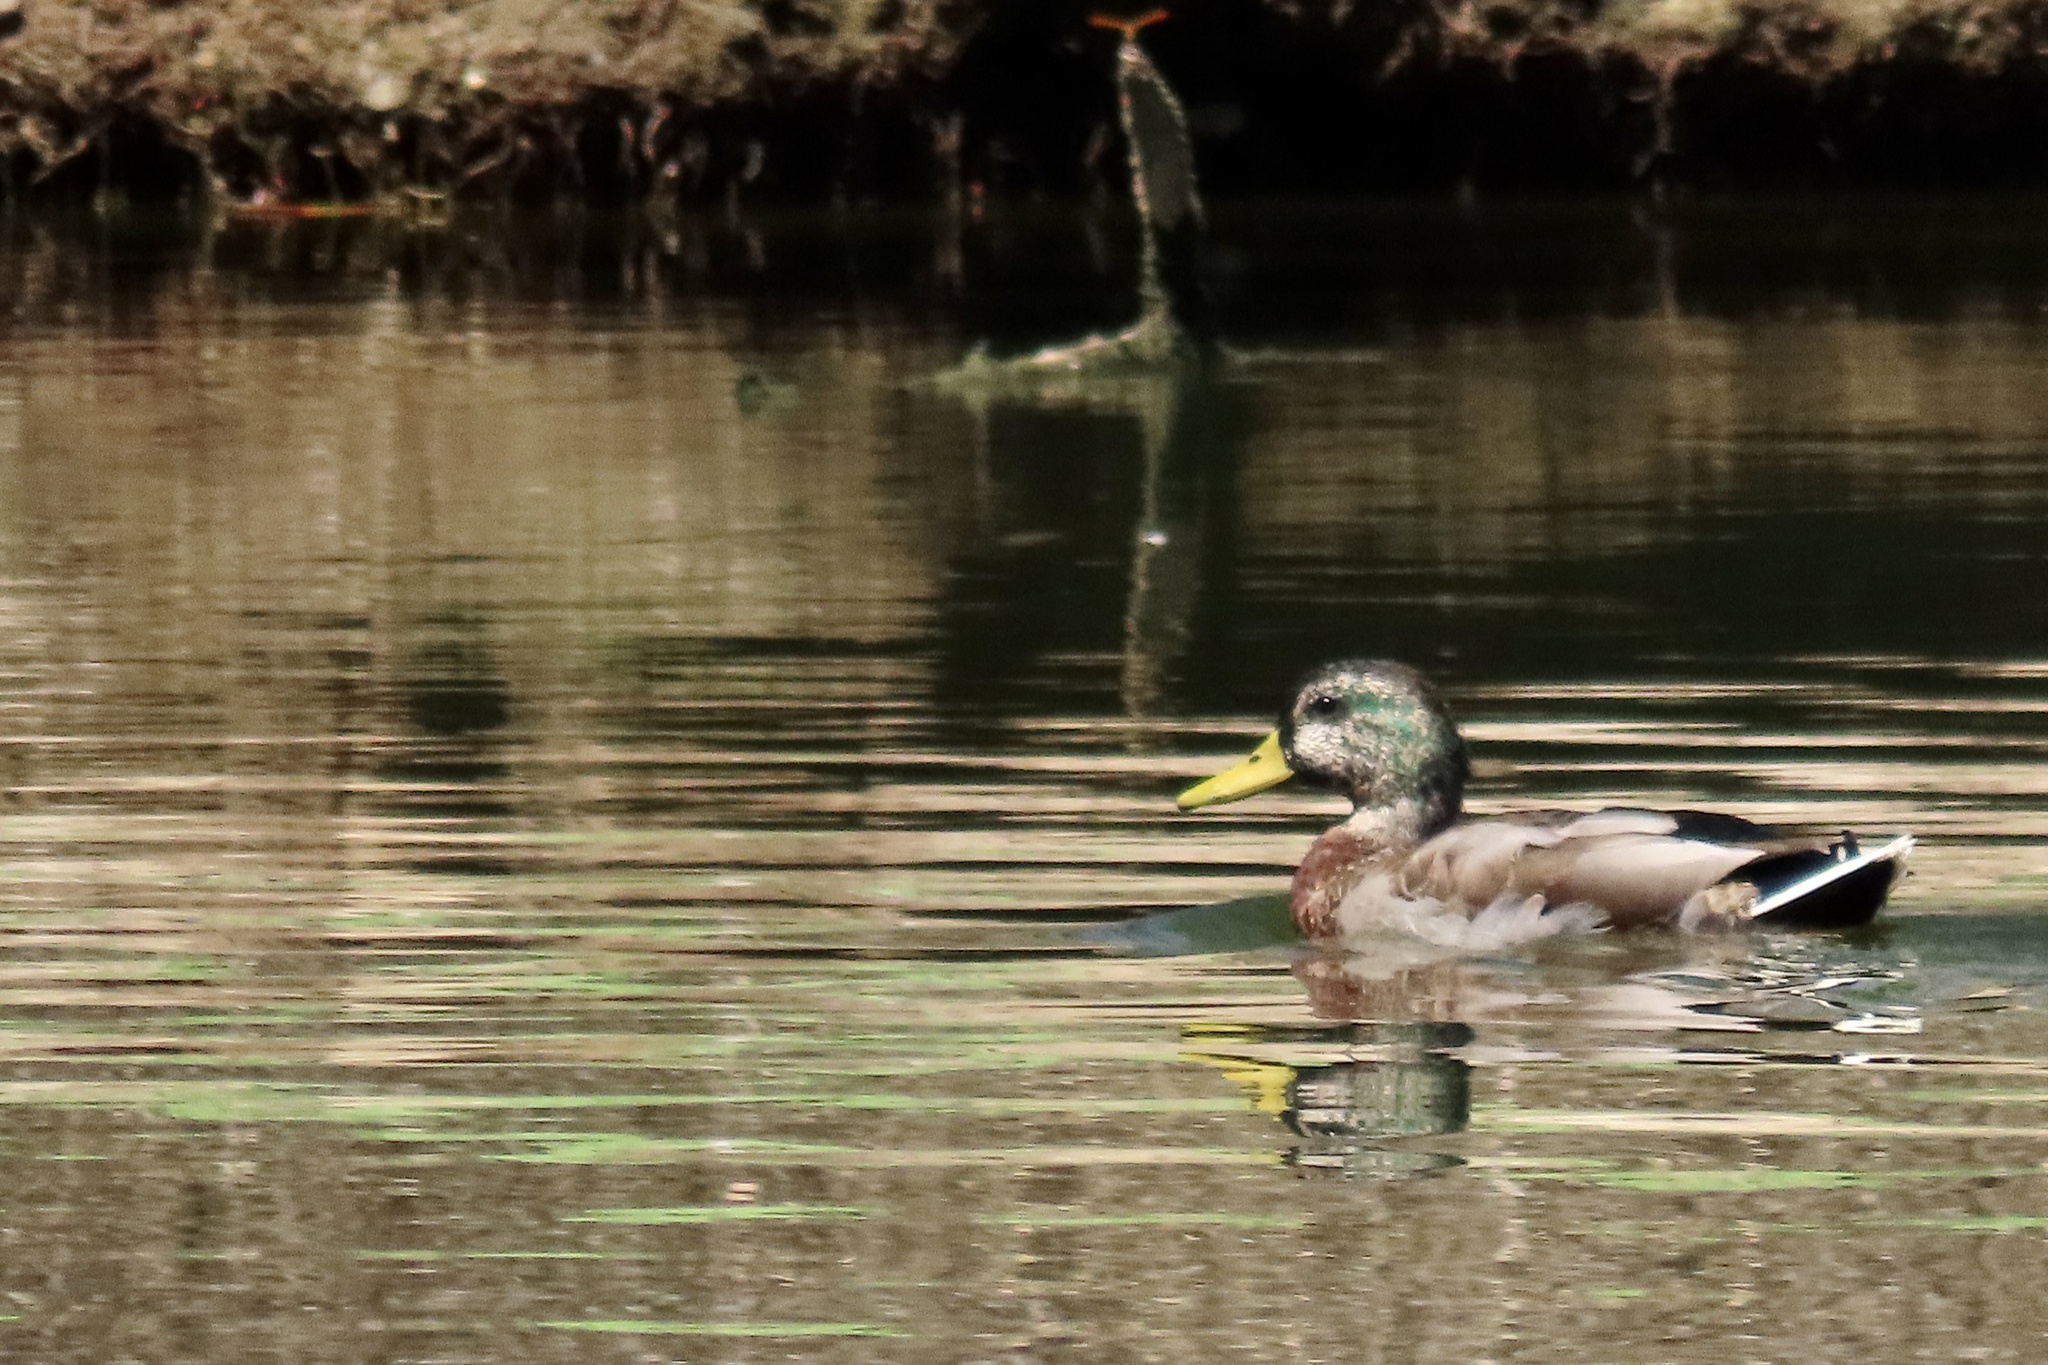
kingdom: Animalia
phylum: Chordata
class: Aves
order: Anseriformes
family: Anatidae
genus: Anas
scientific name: Anas platyrhynchos
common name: Mallard
